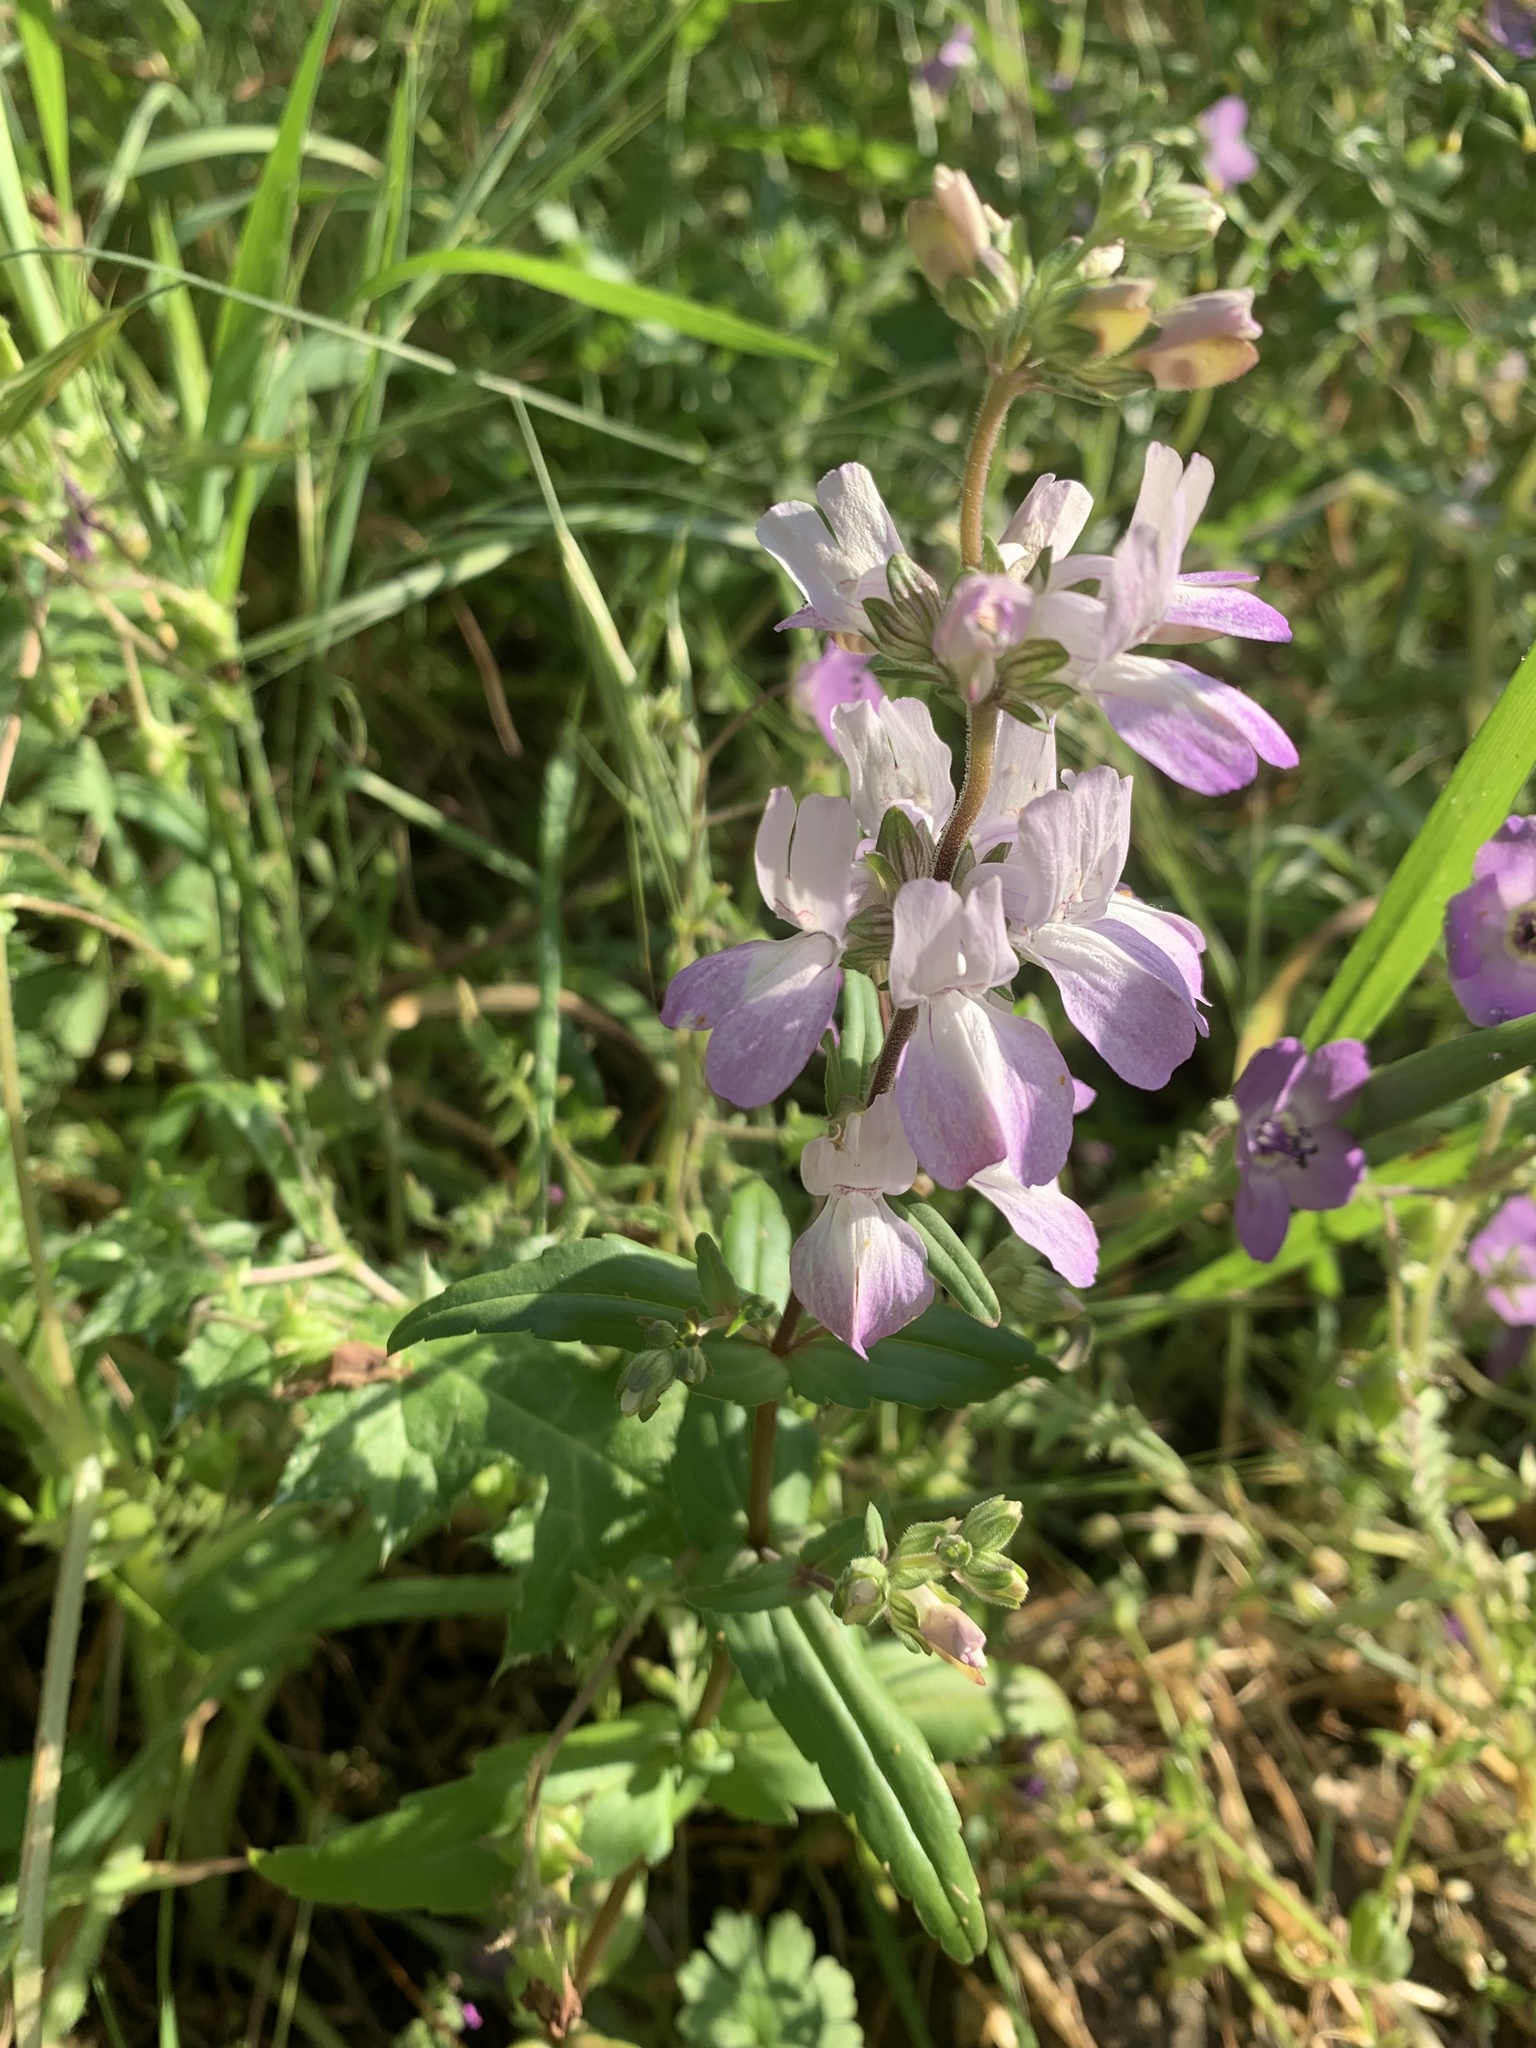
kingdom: Plantae
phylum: Tracheophyta
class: Magnoliopsida
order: Lamiales
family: Plantaginaceae
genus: Collinsia
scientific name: Collinsia heterophylla
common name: Chinese-houses
